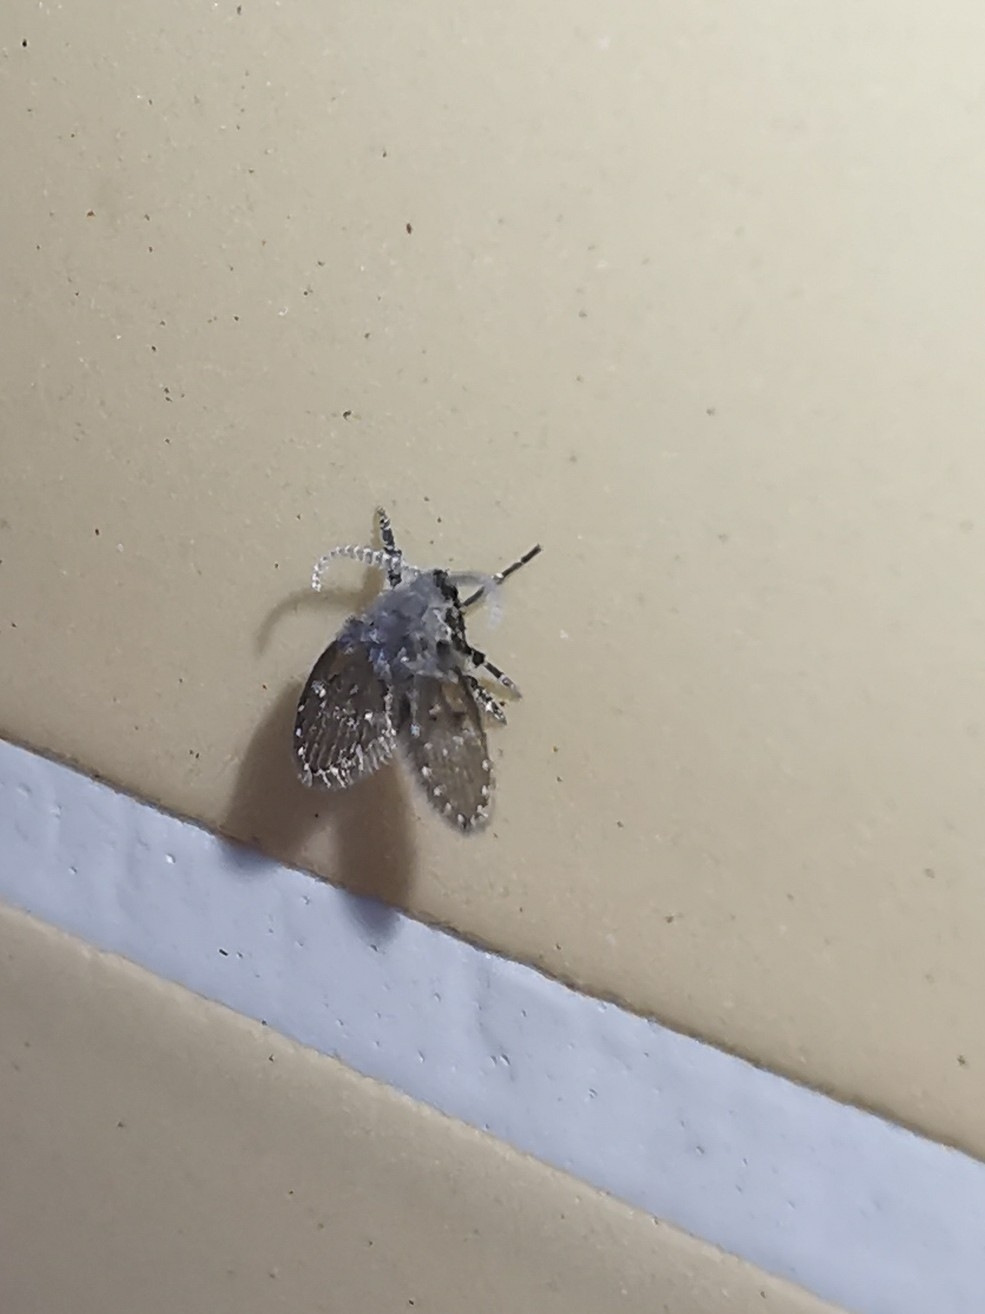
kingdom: Animalia
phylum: Arthropoda
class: Insecta
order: Diptera
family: Psychodidae
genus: Clogmia
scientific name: Clogmia albipunctatus
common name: White-spotted moth fly
